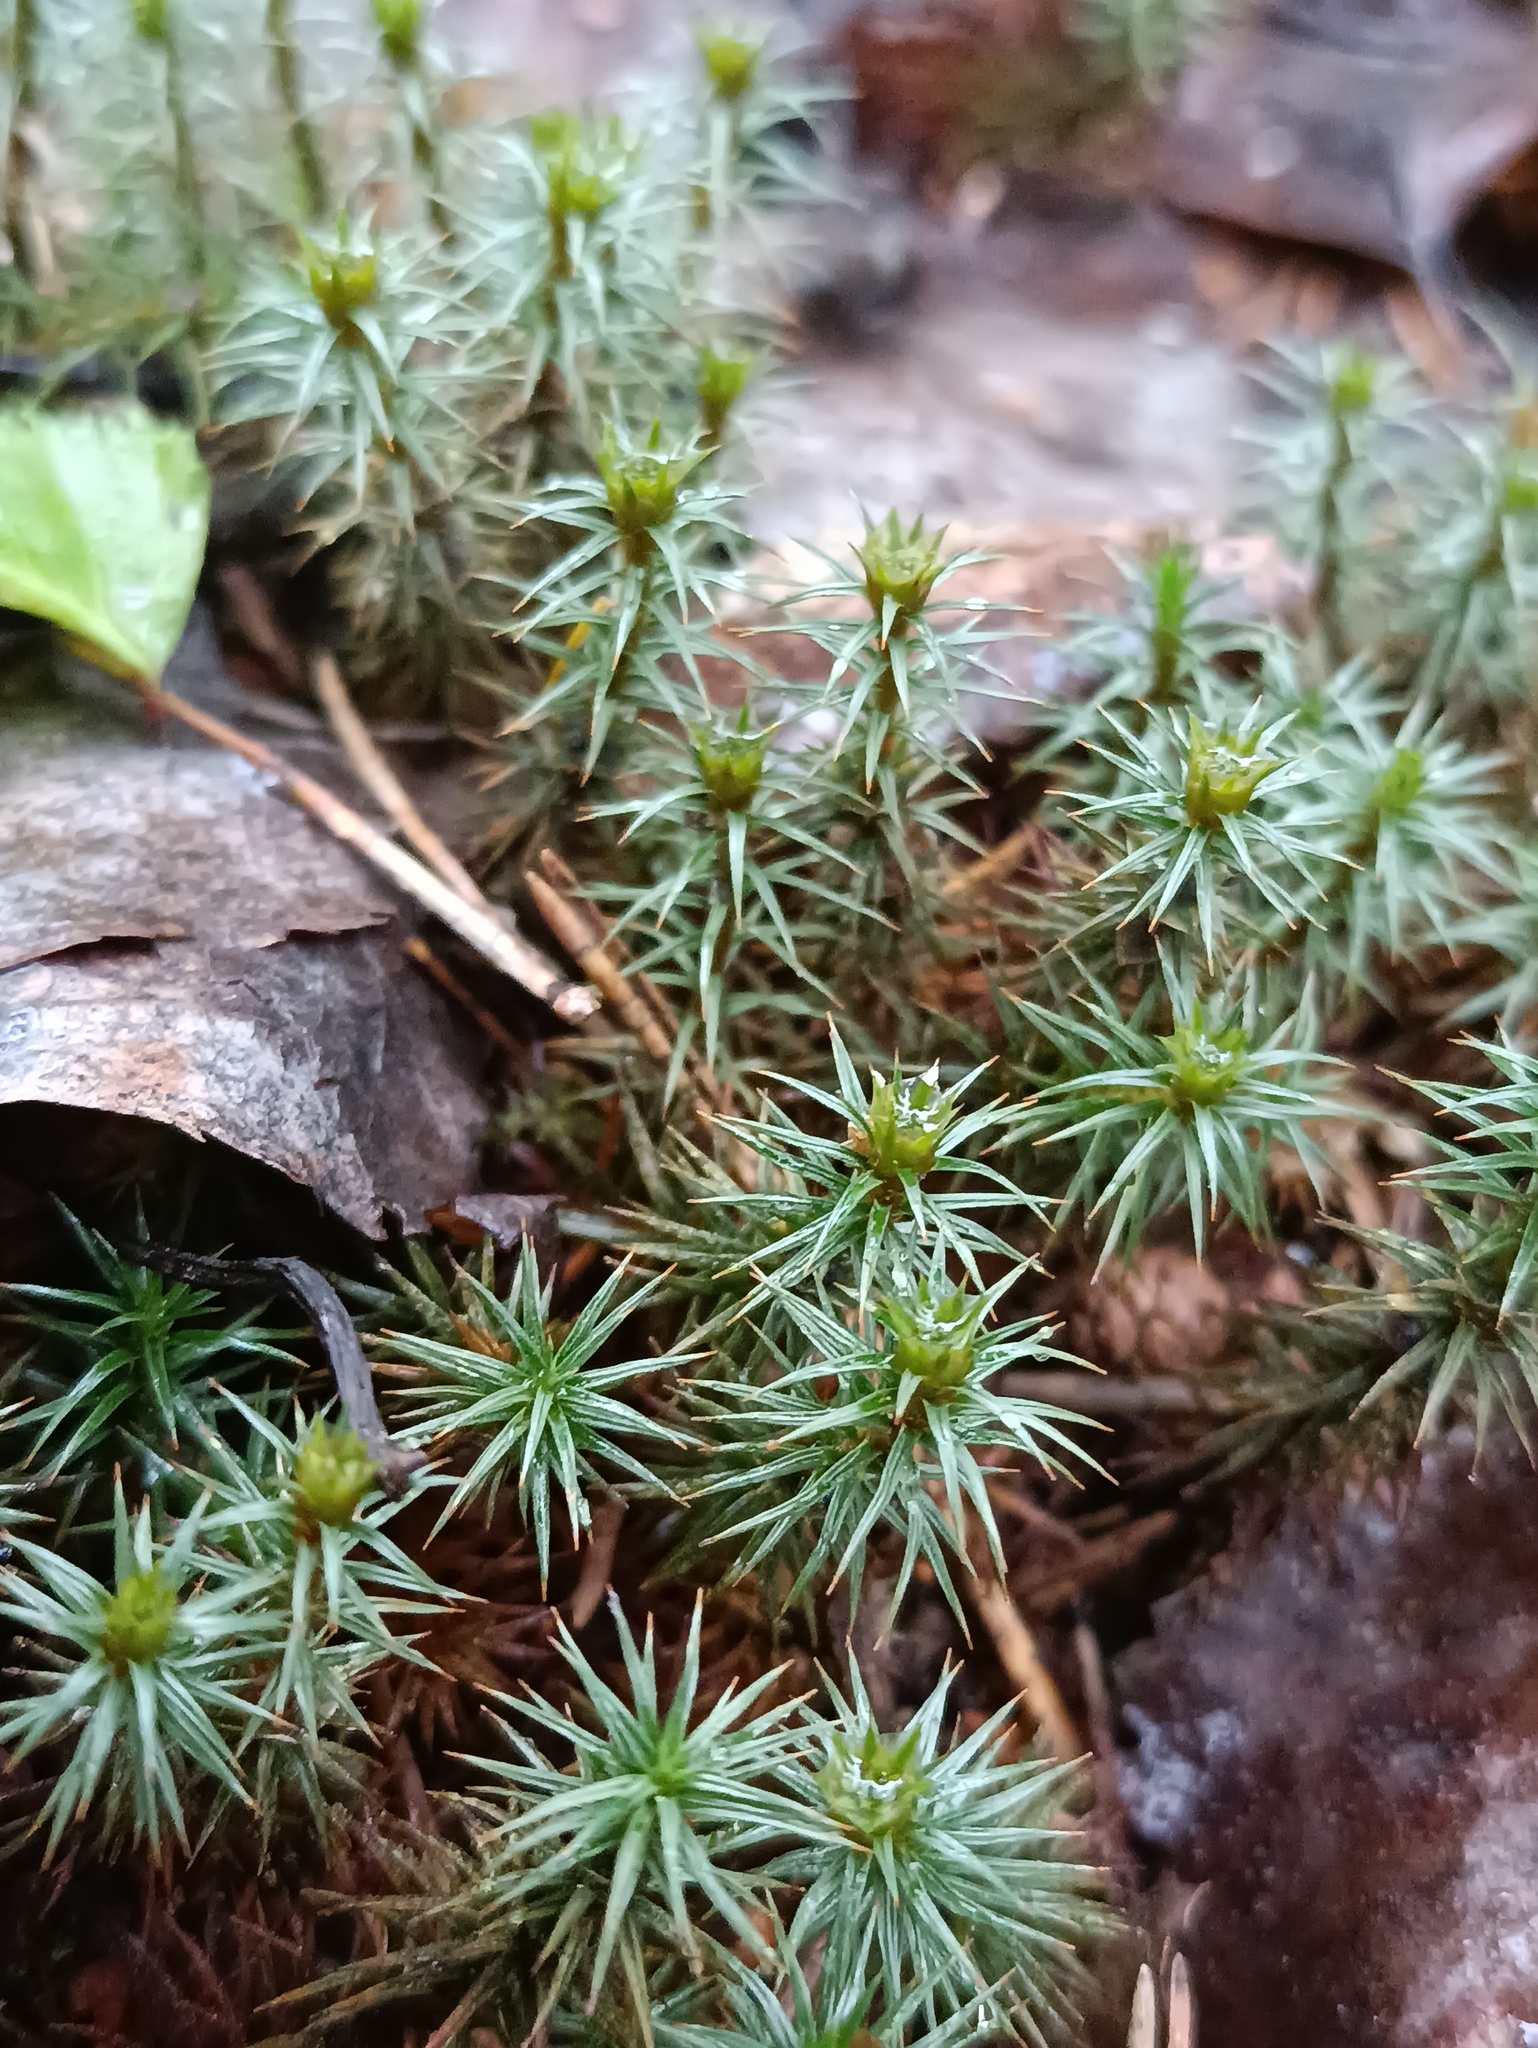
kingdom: Plantae
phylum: Bryophyta
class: Polytrichopsida
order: Polytrichales
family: Polytrichaceae
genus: Polytrichum
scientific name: Polytrichum juniperinum
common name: Juniper haircap moss
